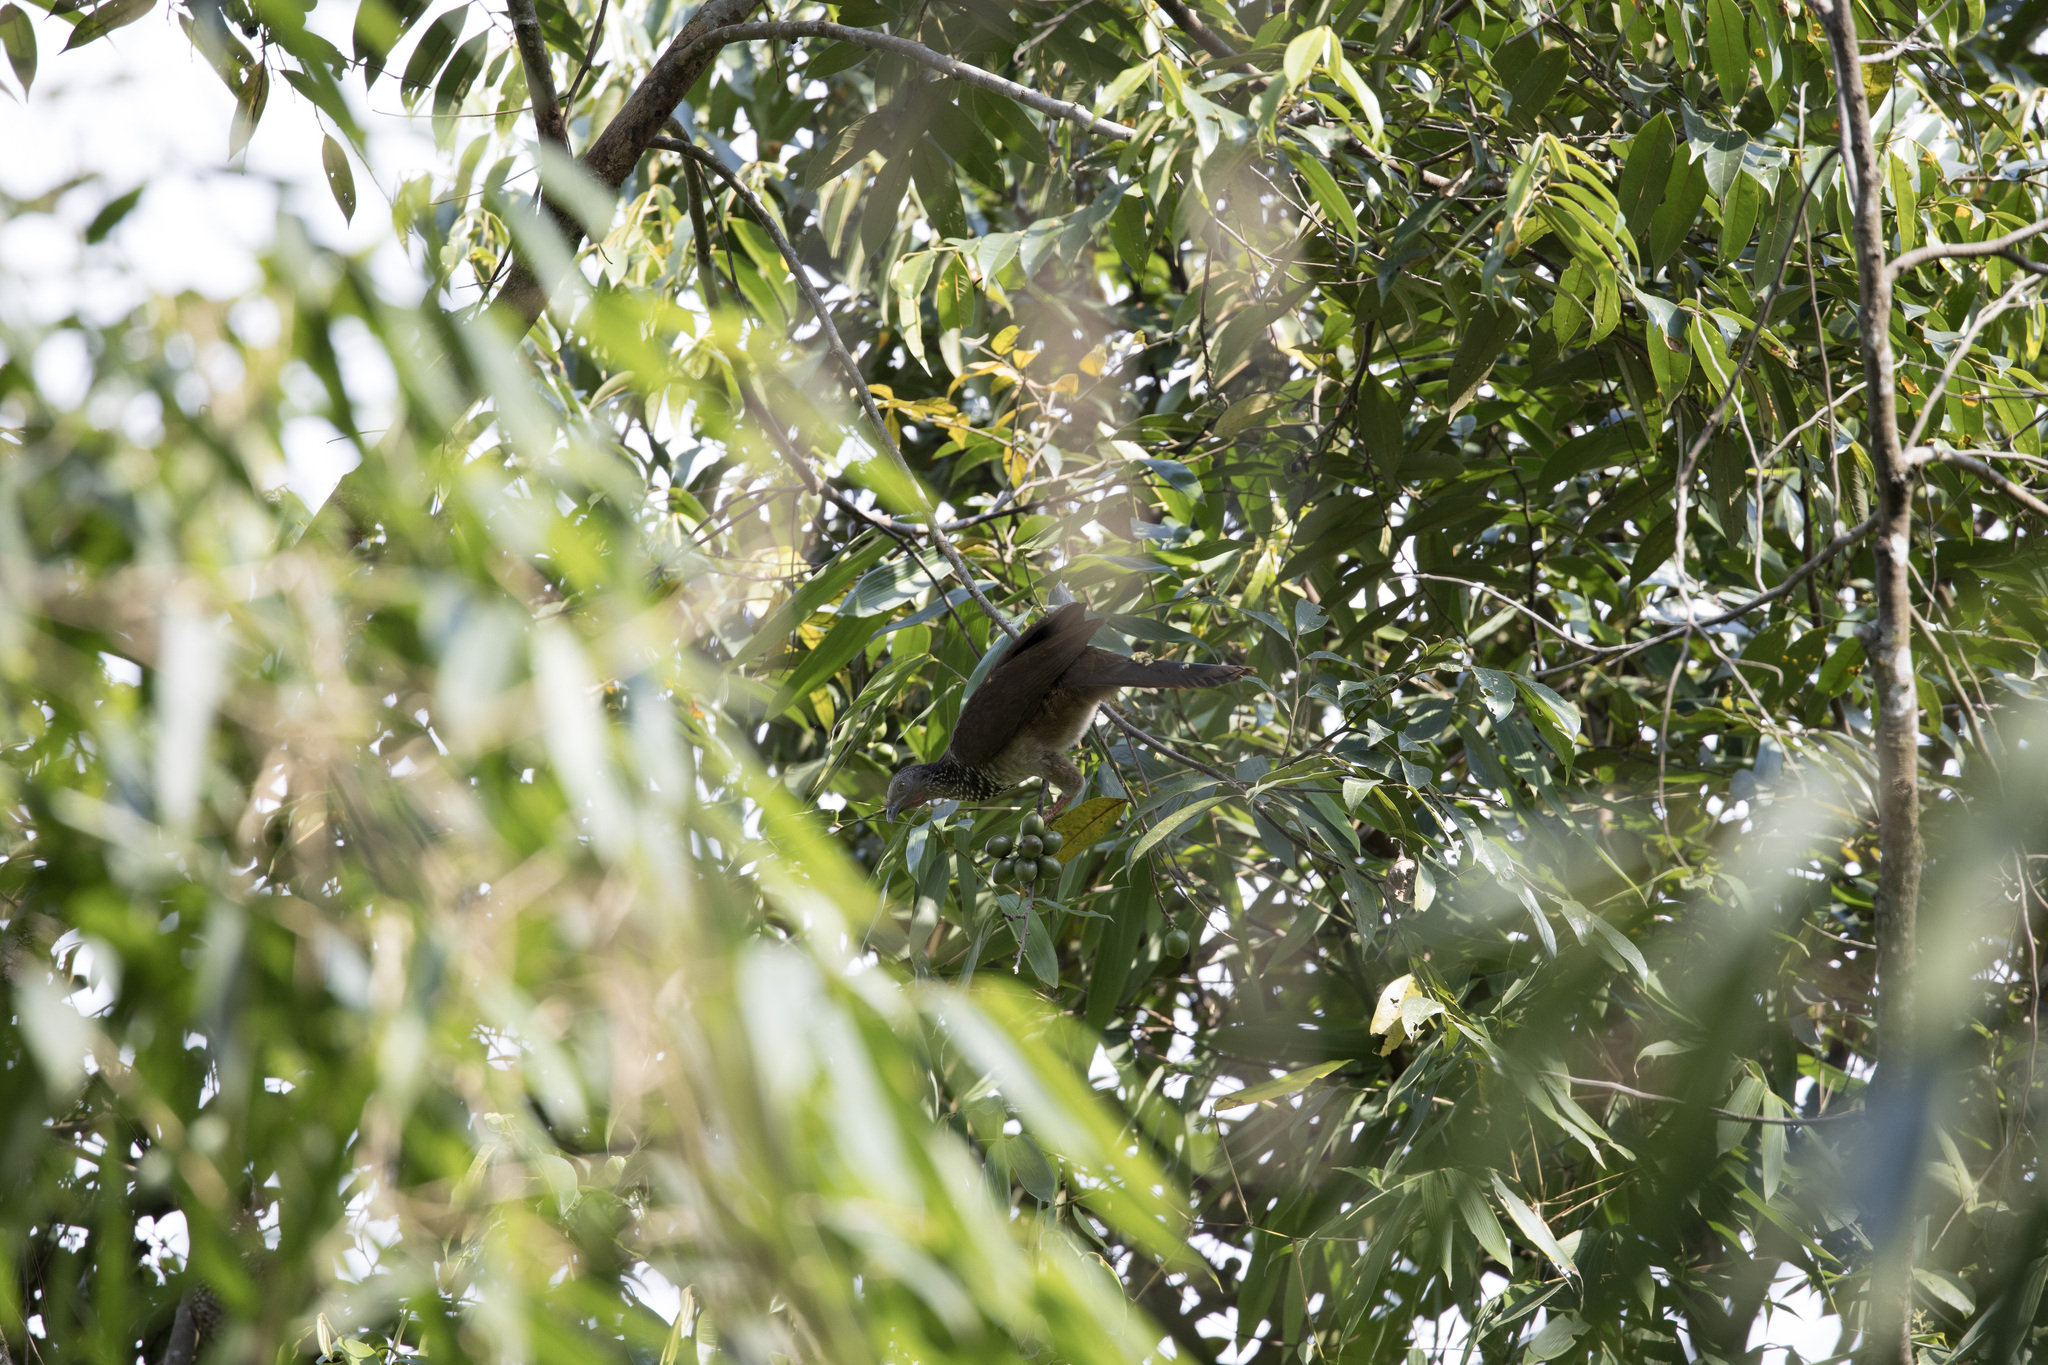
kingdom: Animalia
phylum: Chordata
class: Aves
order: Galliformes
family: Cracidae
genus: Ortalis
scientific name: Ortalis guttata
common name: Speckled chachalaca
